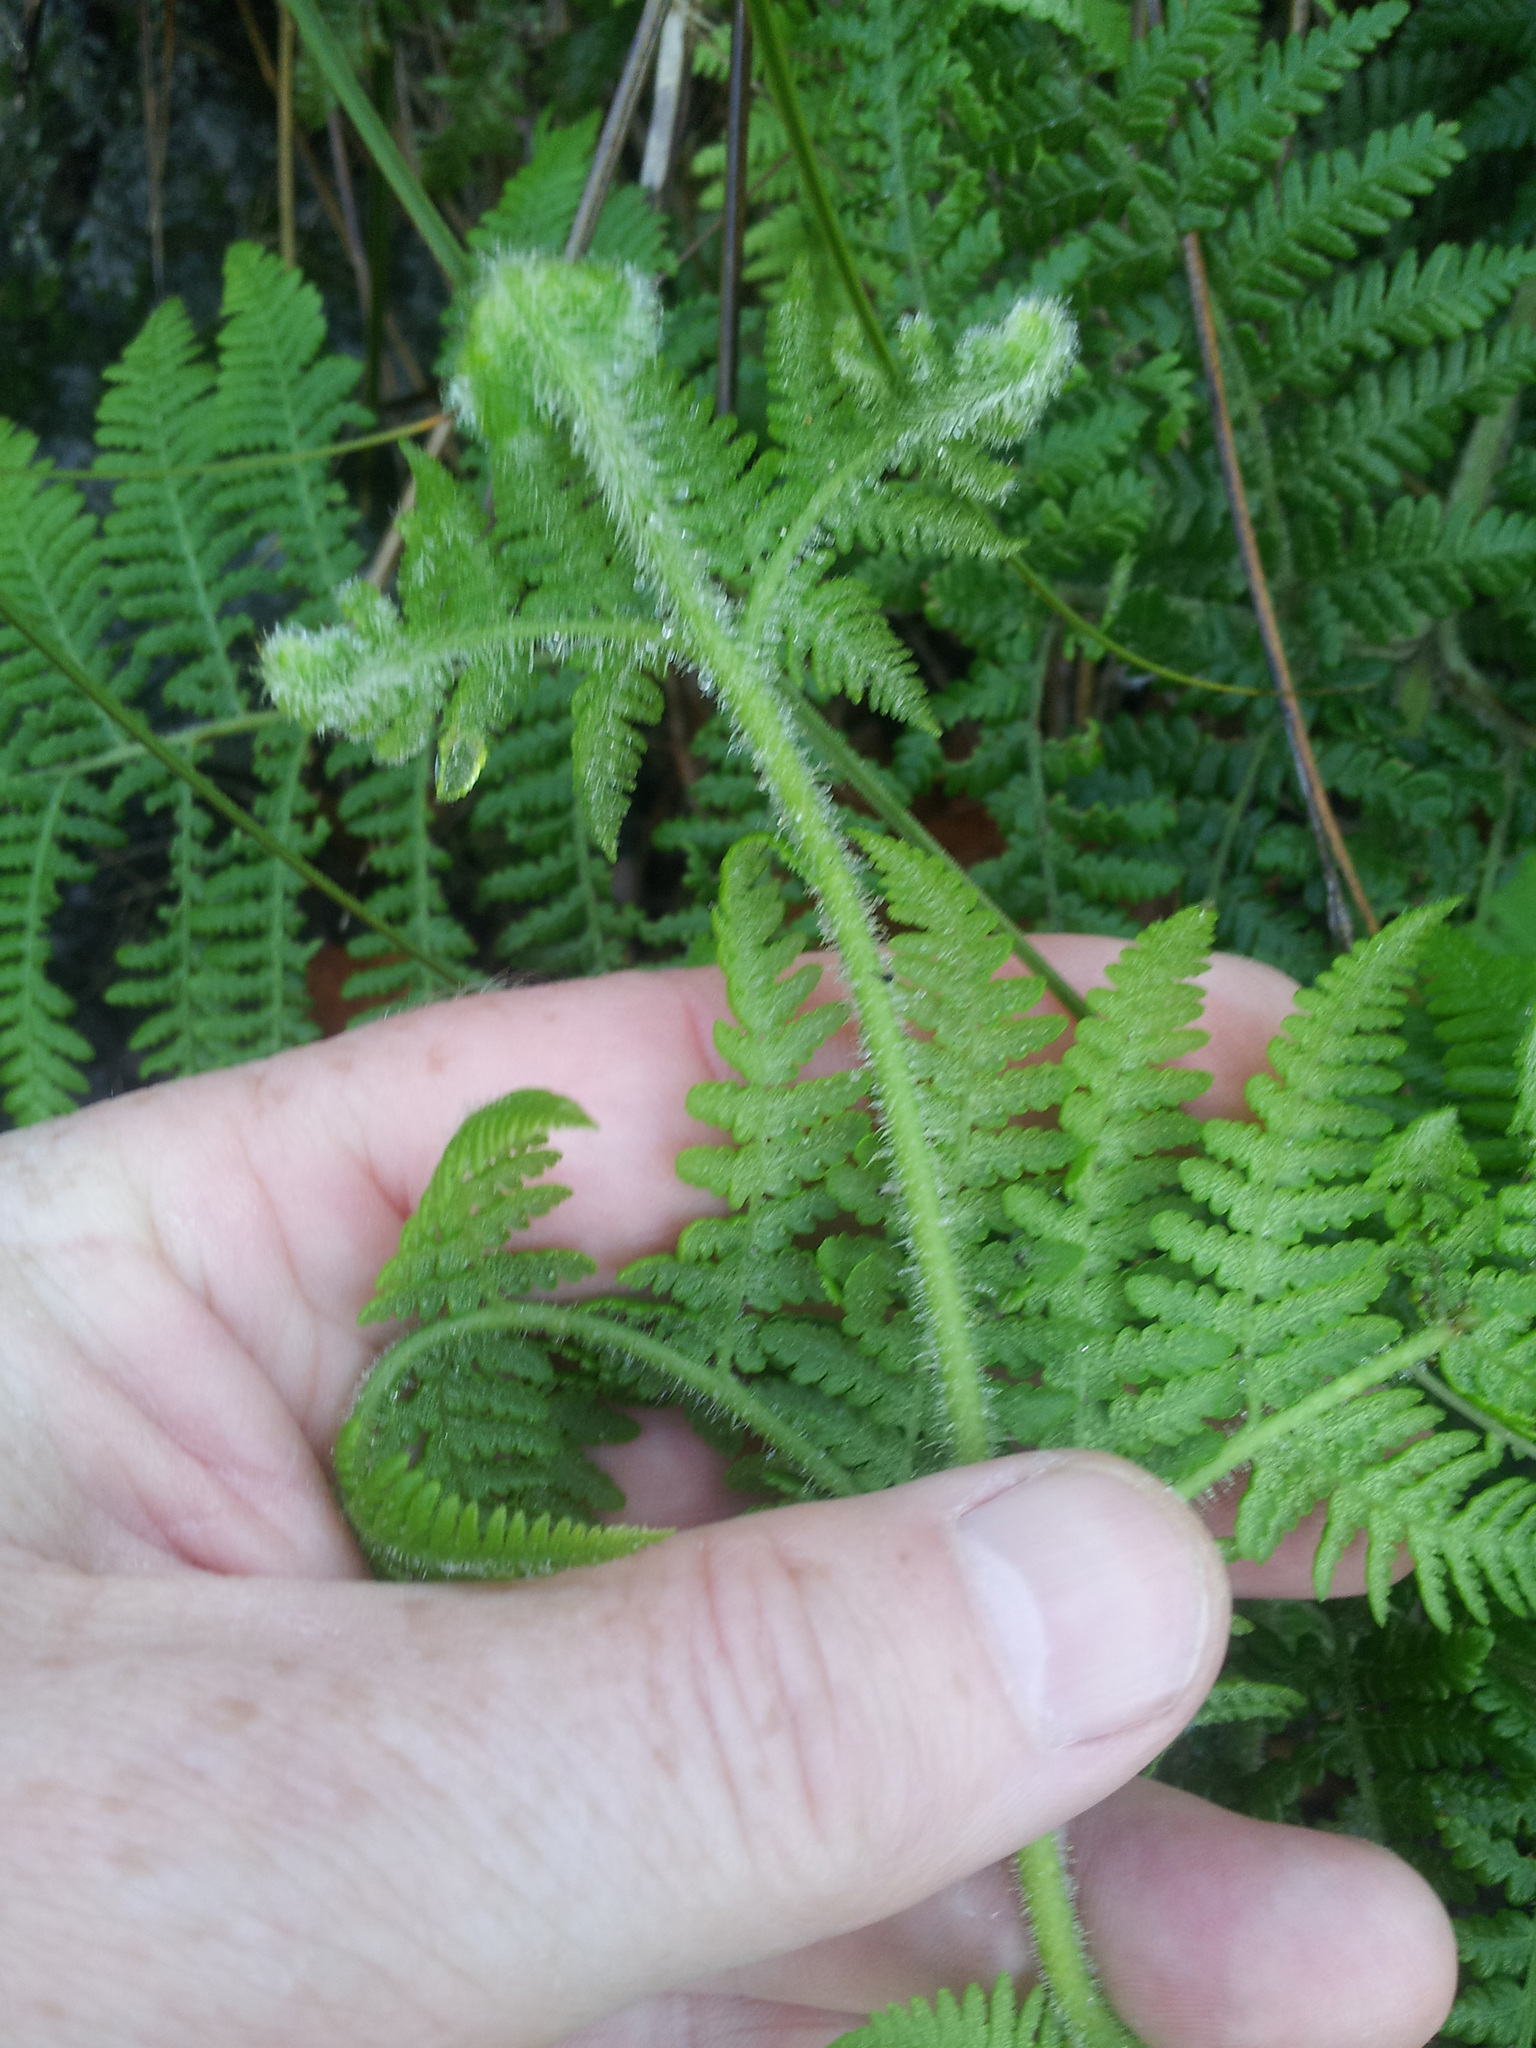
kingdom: Plantae
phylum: Tracheophyta
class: Polypodiopsida
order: Polypodiales
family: Dennstaedtiaceae
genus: Hypolepis
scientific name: Hypolepis dicksonioides
